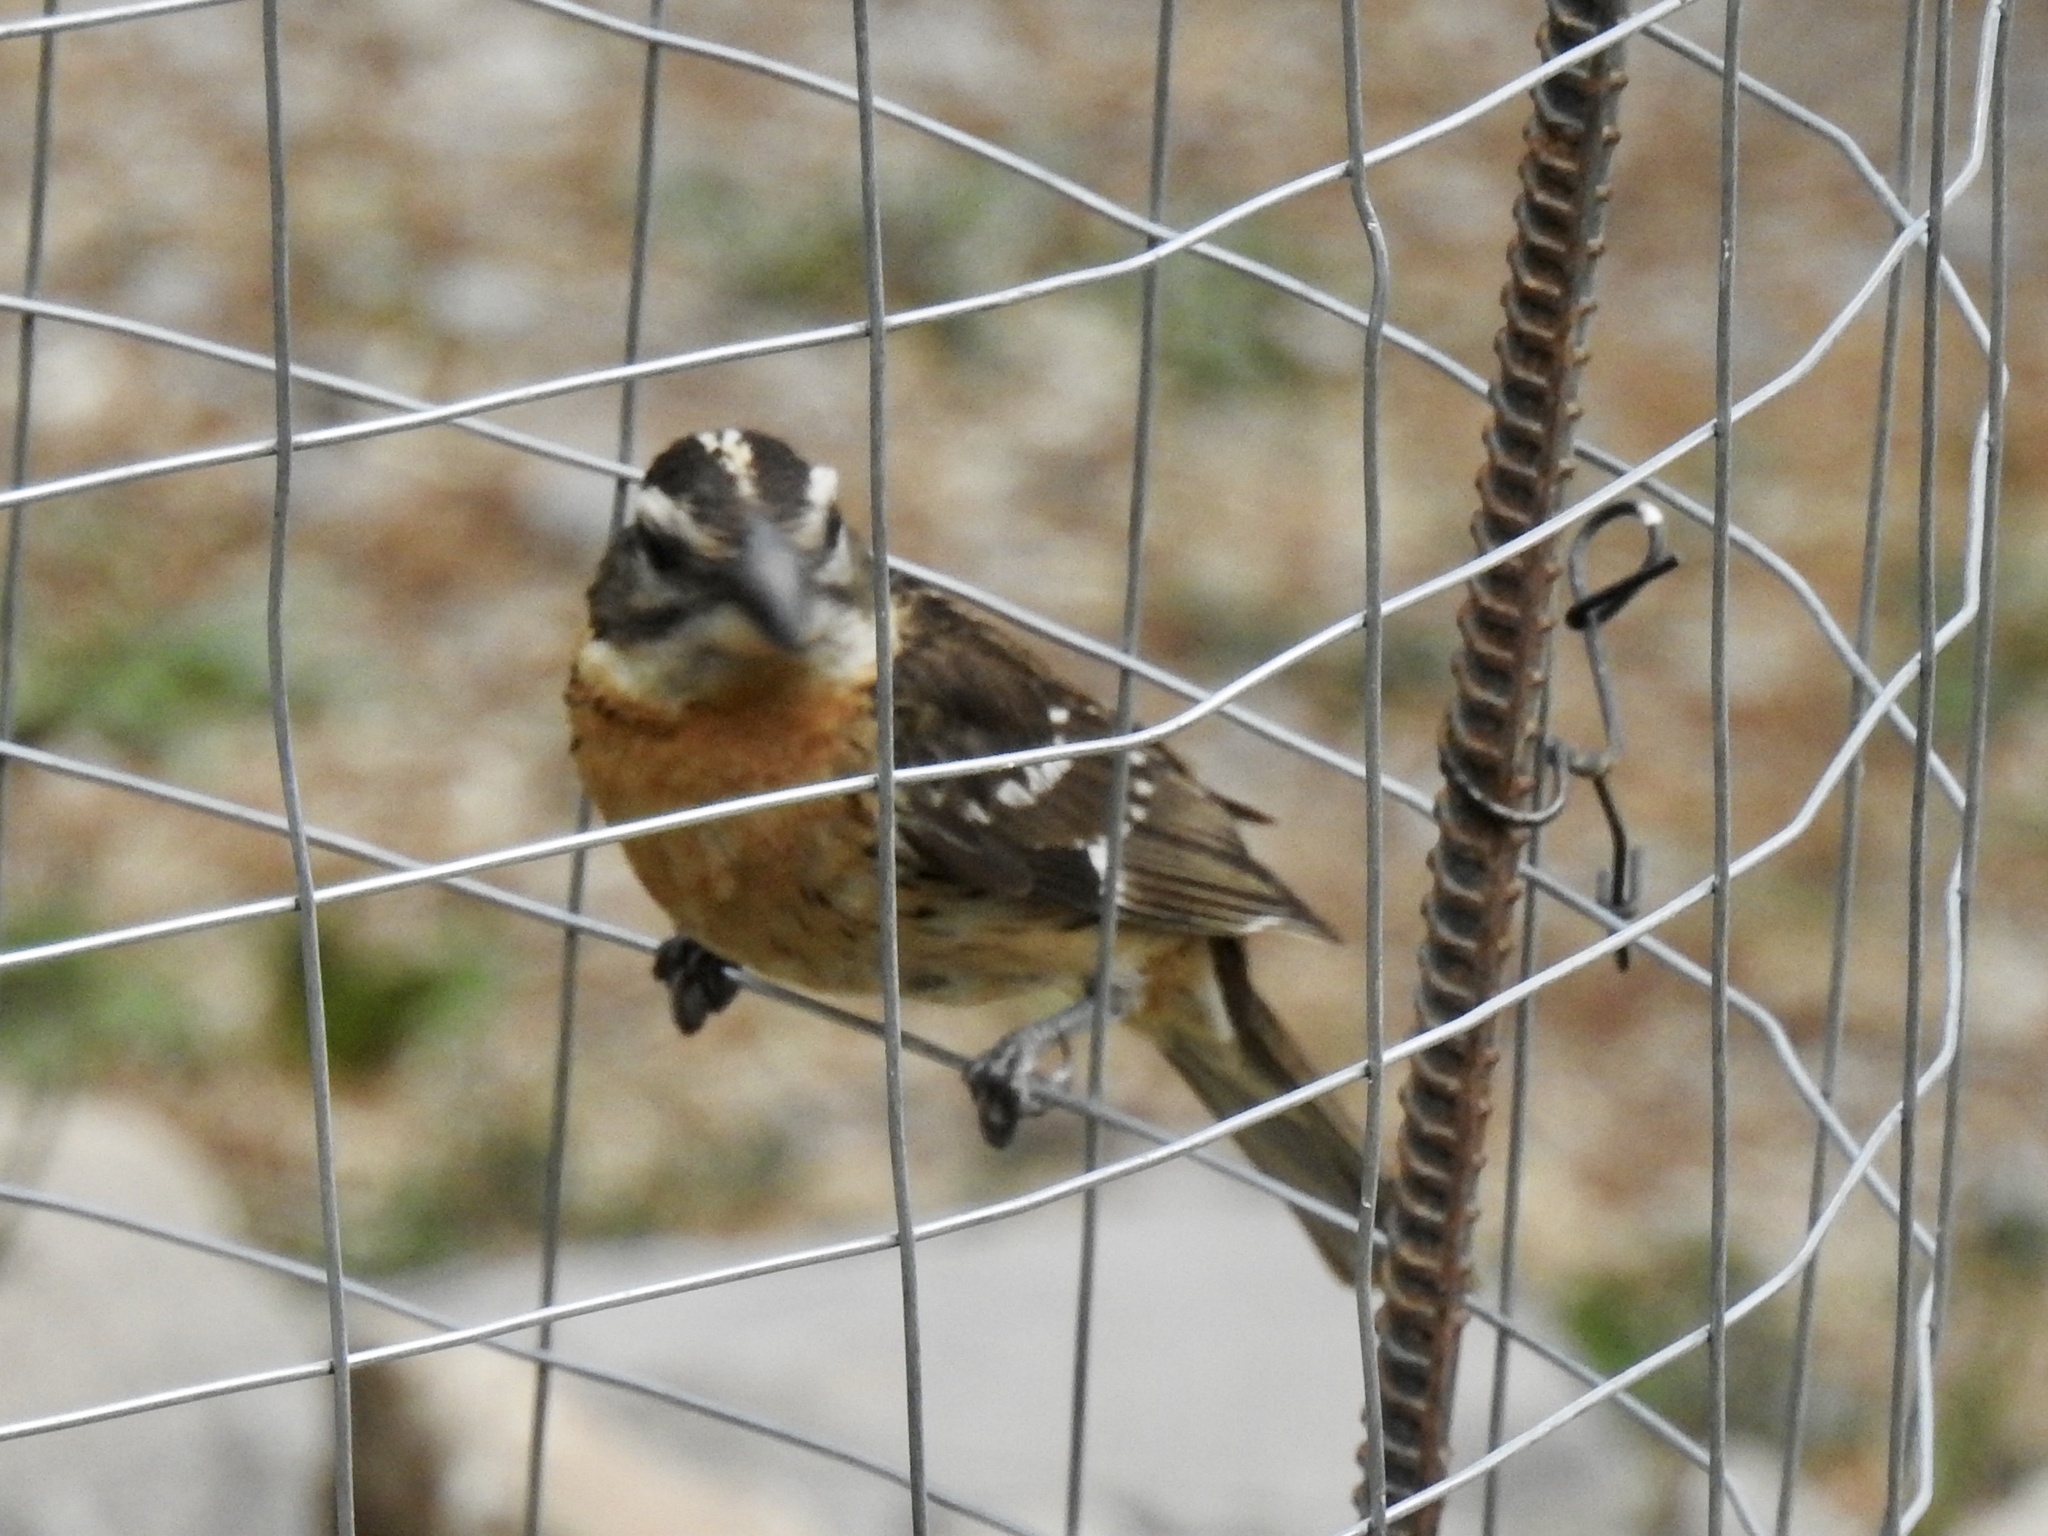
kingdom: Animalia
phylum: Chordata
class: Aves
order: Passeriformes
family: Cardinalidae
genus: Pheucticus
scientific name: Pheucticus melanocephalus
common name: Black-headed grosbeak
